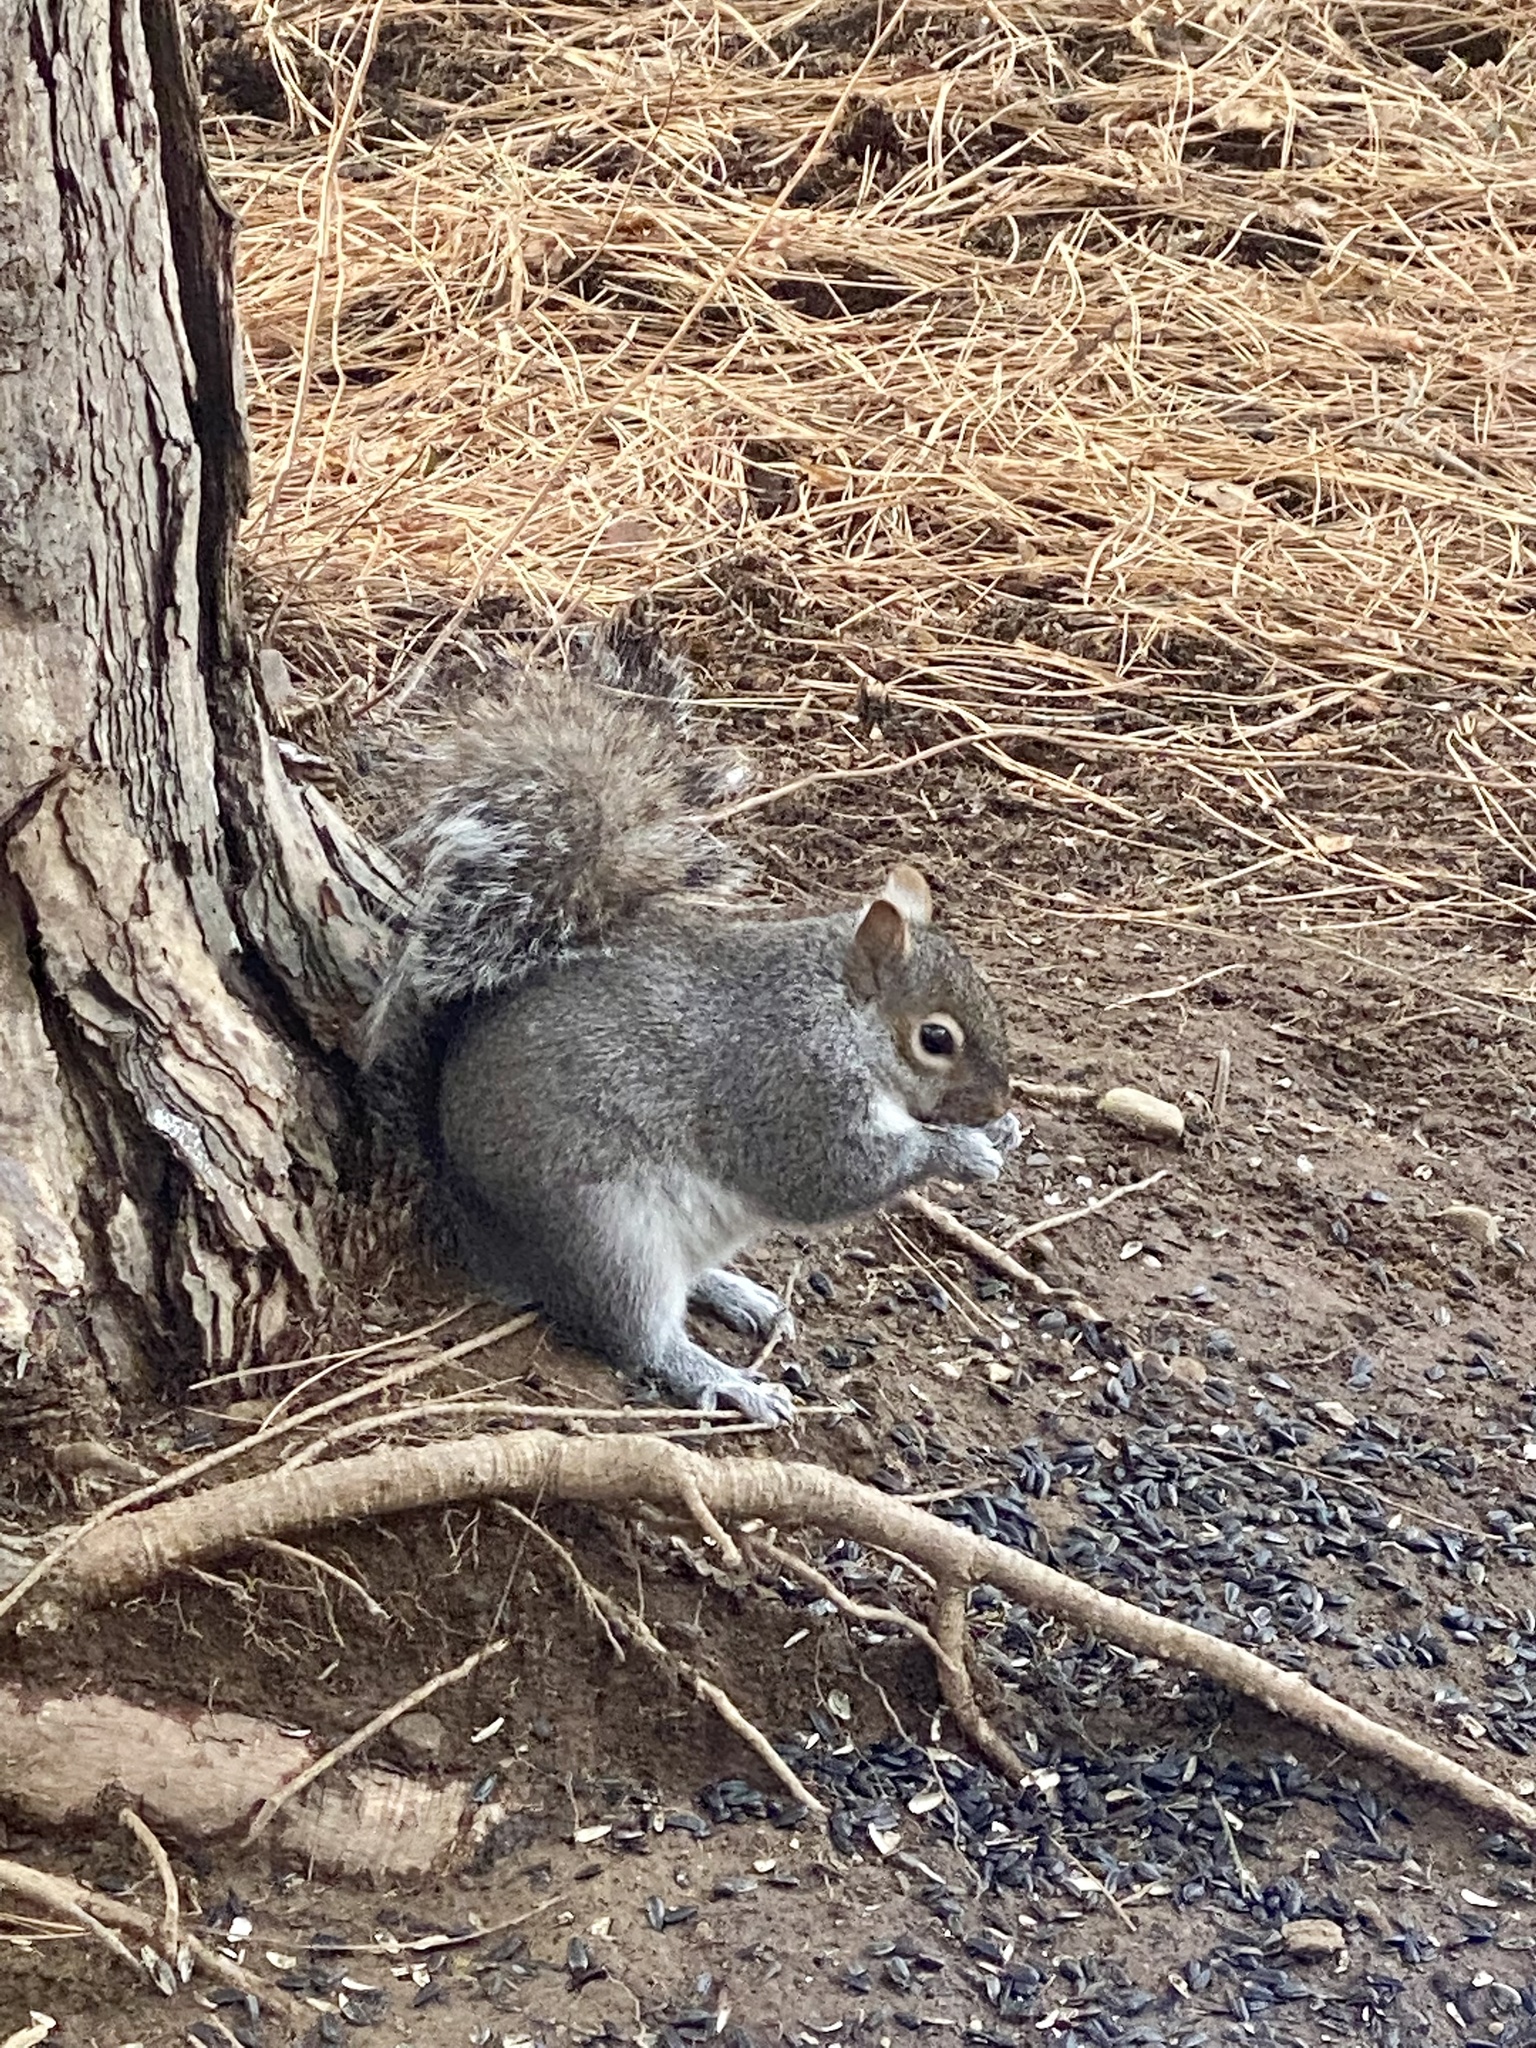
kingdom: Animalia
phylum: Chordata
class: Mammalia
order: Rodentia
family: Sciuridae
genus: Sciurus
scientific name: Sciurus carolinensis
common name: Eastern gray squirrel
